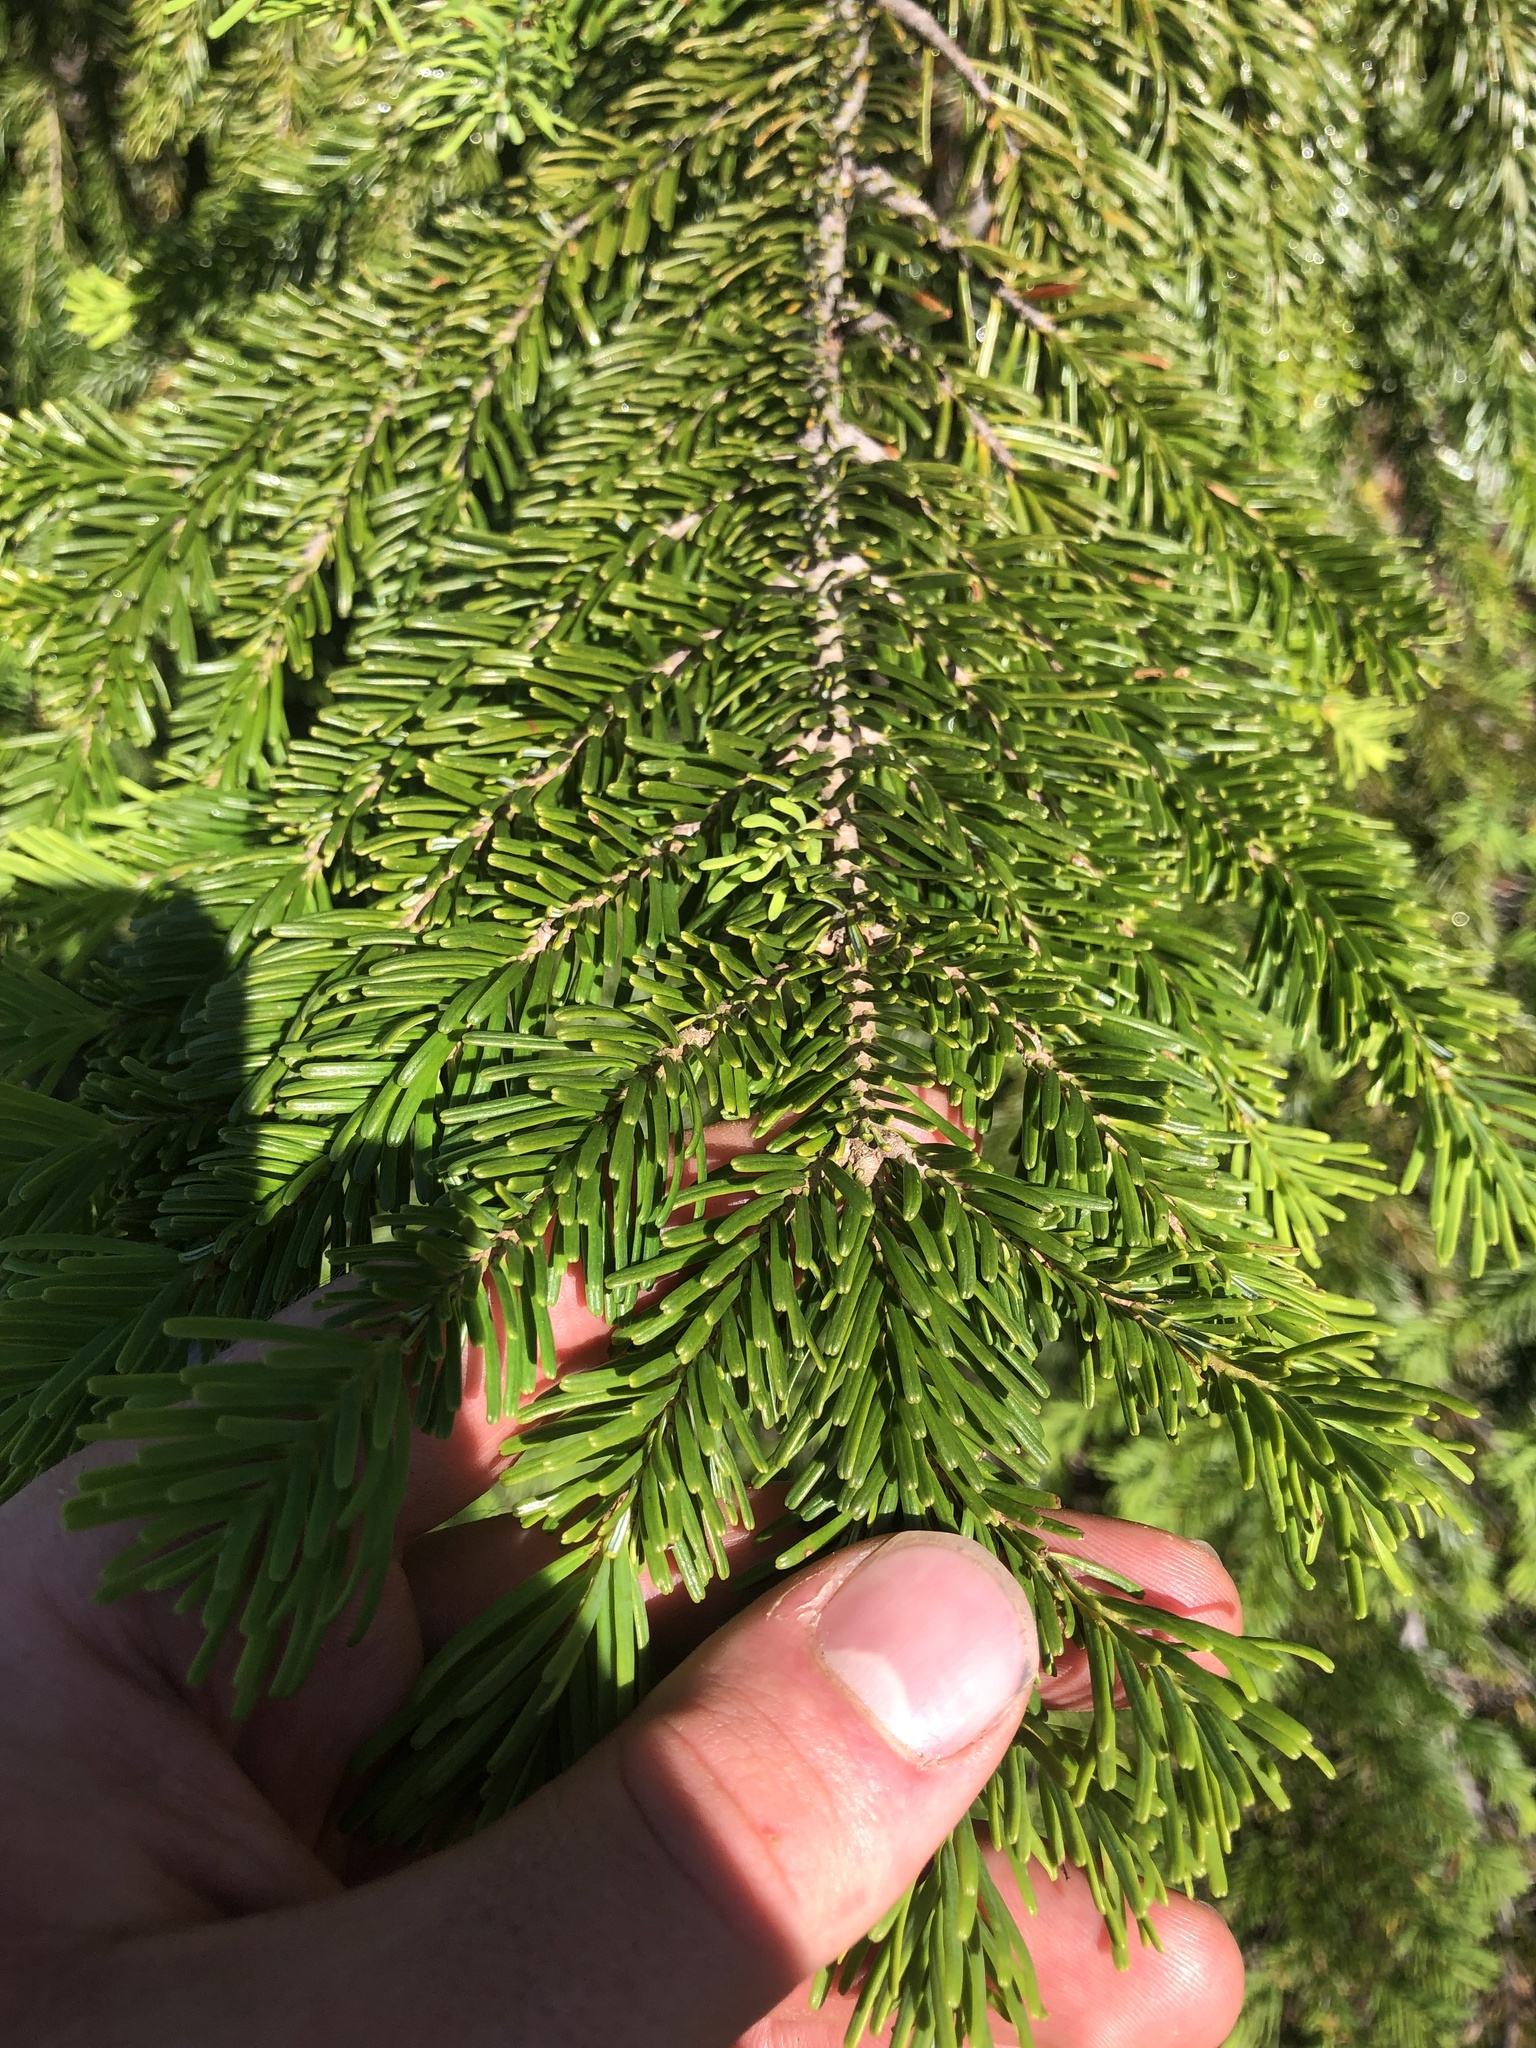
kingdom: Plantae
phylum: Tracheophyta
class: Pinopsida
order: Pinales
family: Pinaceae
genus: Abies
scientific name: Abies amabilis
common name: Pacific silver fir
